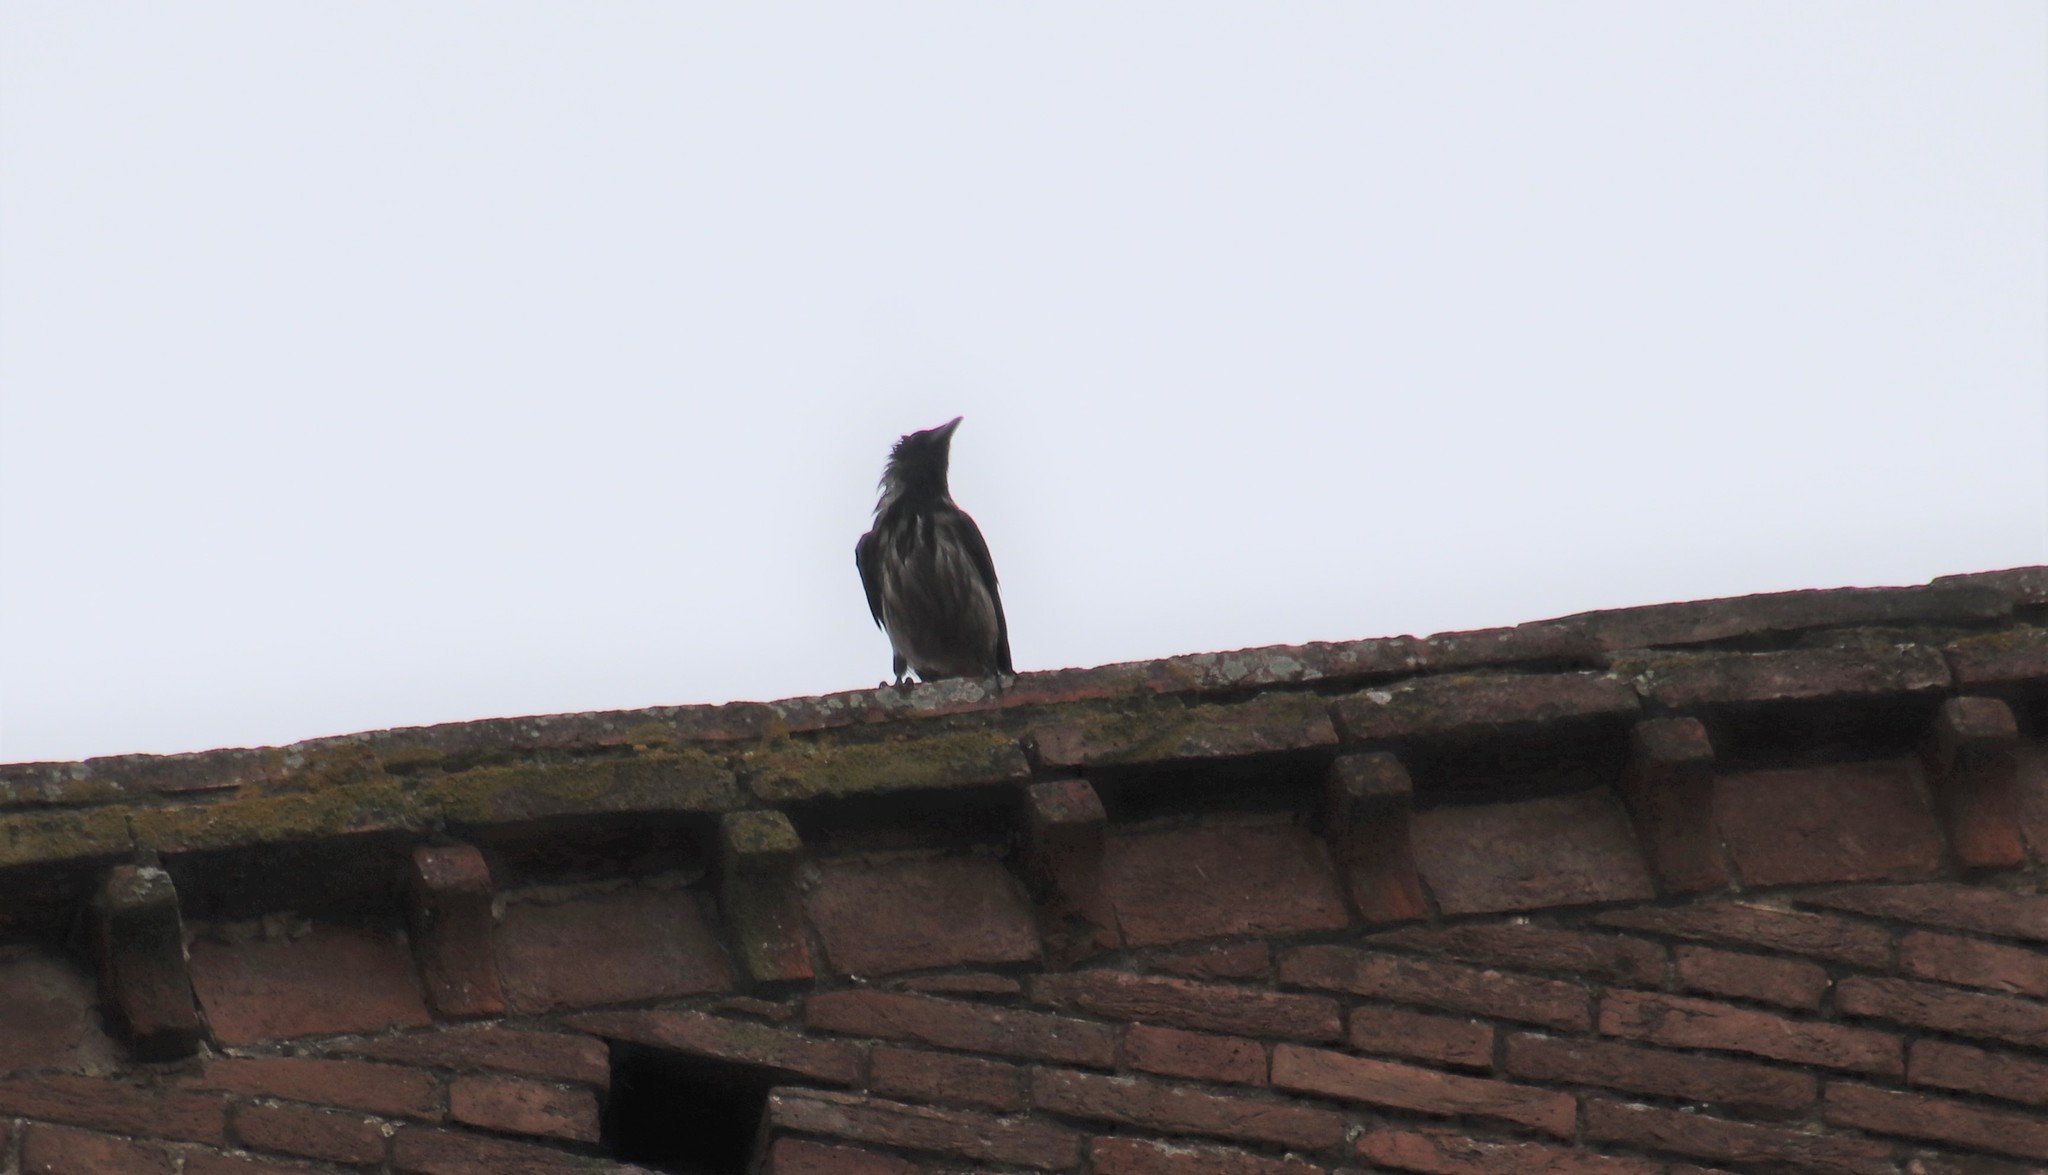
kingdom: Animalia
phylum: Chordata
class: Aves
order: Passeriformes
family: Corvidae
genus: Corvus
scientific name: Corvus cornix
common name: Hooded crow
